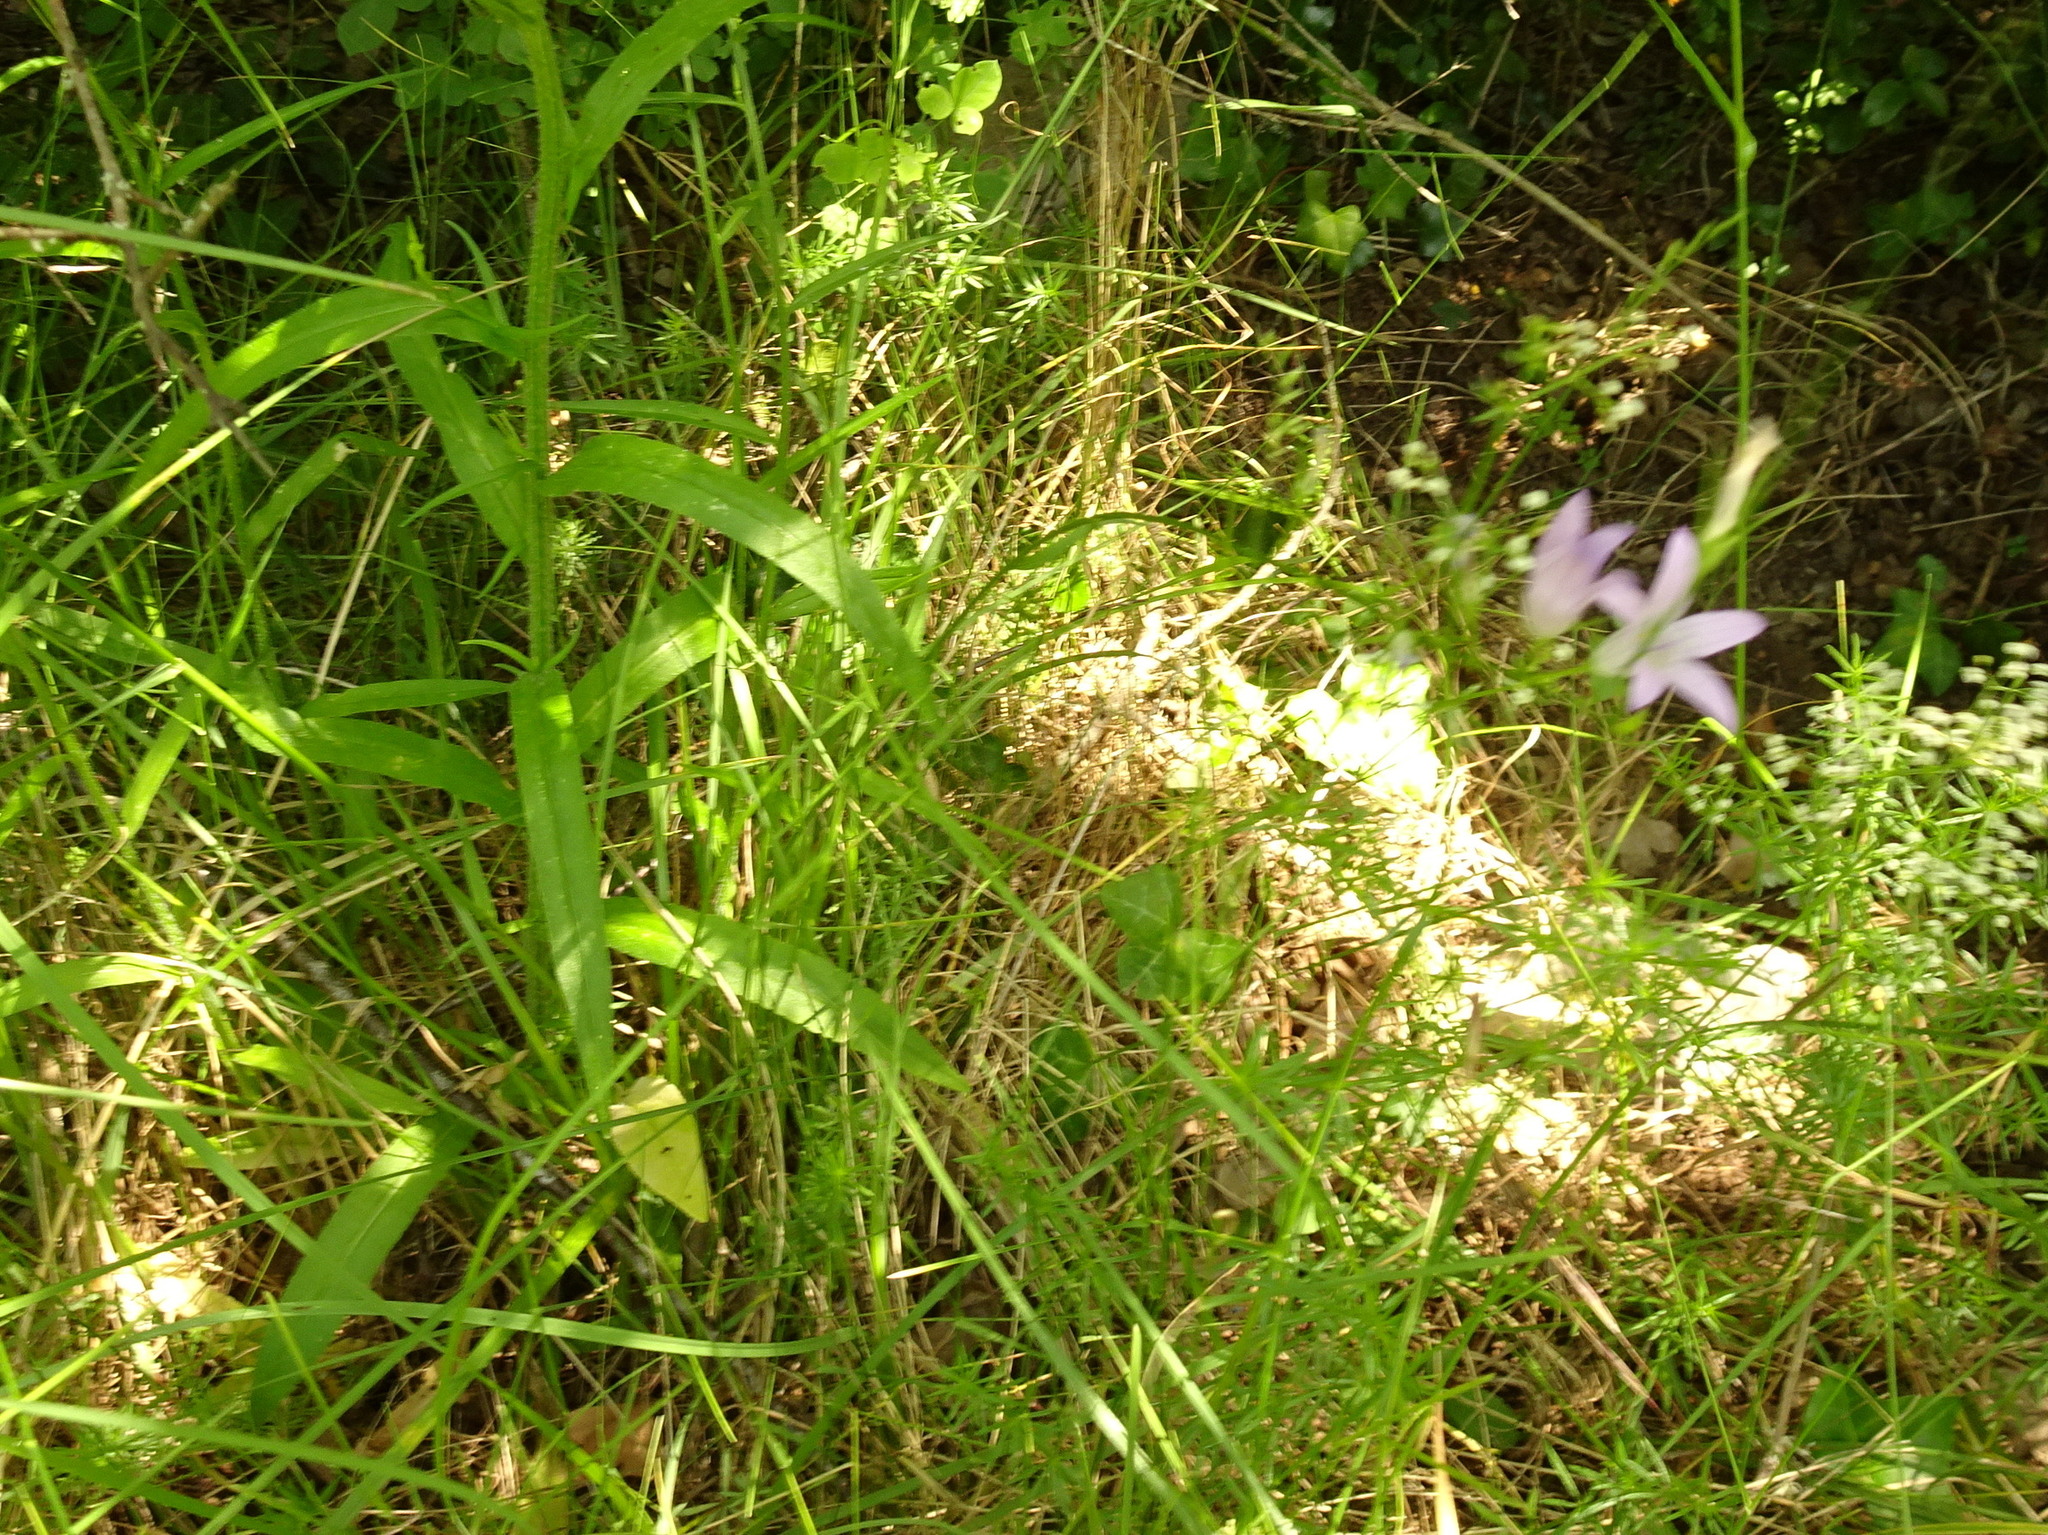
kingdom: Plantae
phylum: Tracheophyta
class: Magnoliopsida
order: Asterales
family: Campanulaceae
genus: Campanula
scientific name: Campanula rapunculus
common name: Rampion bellflower
